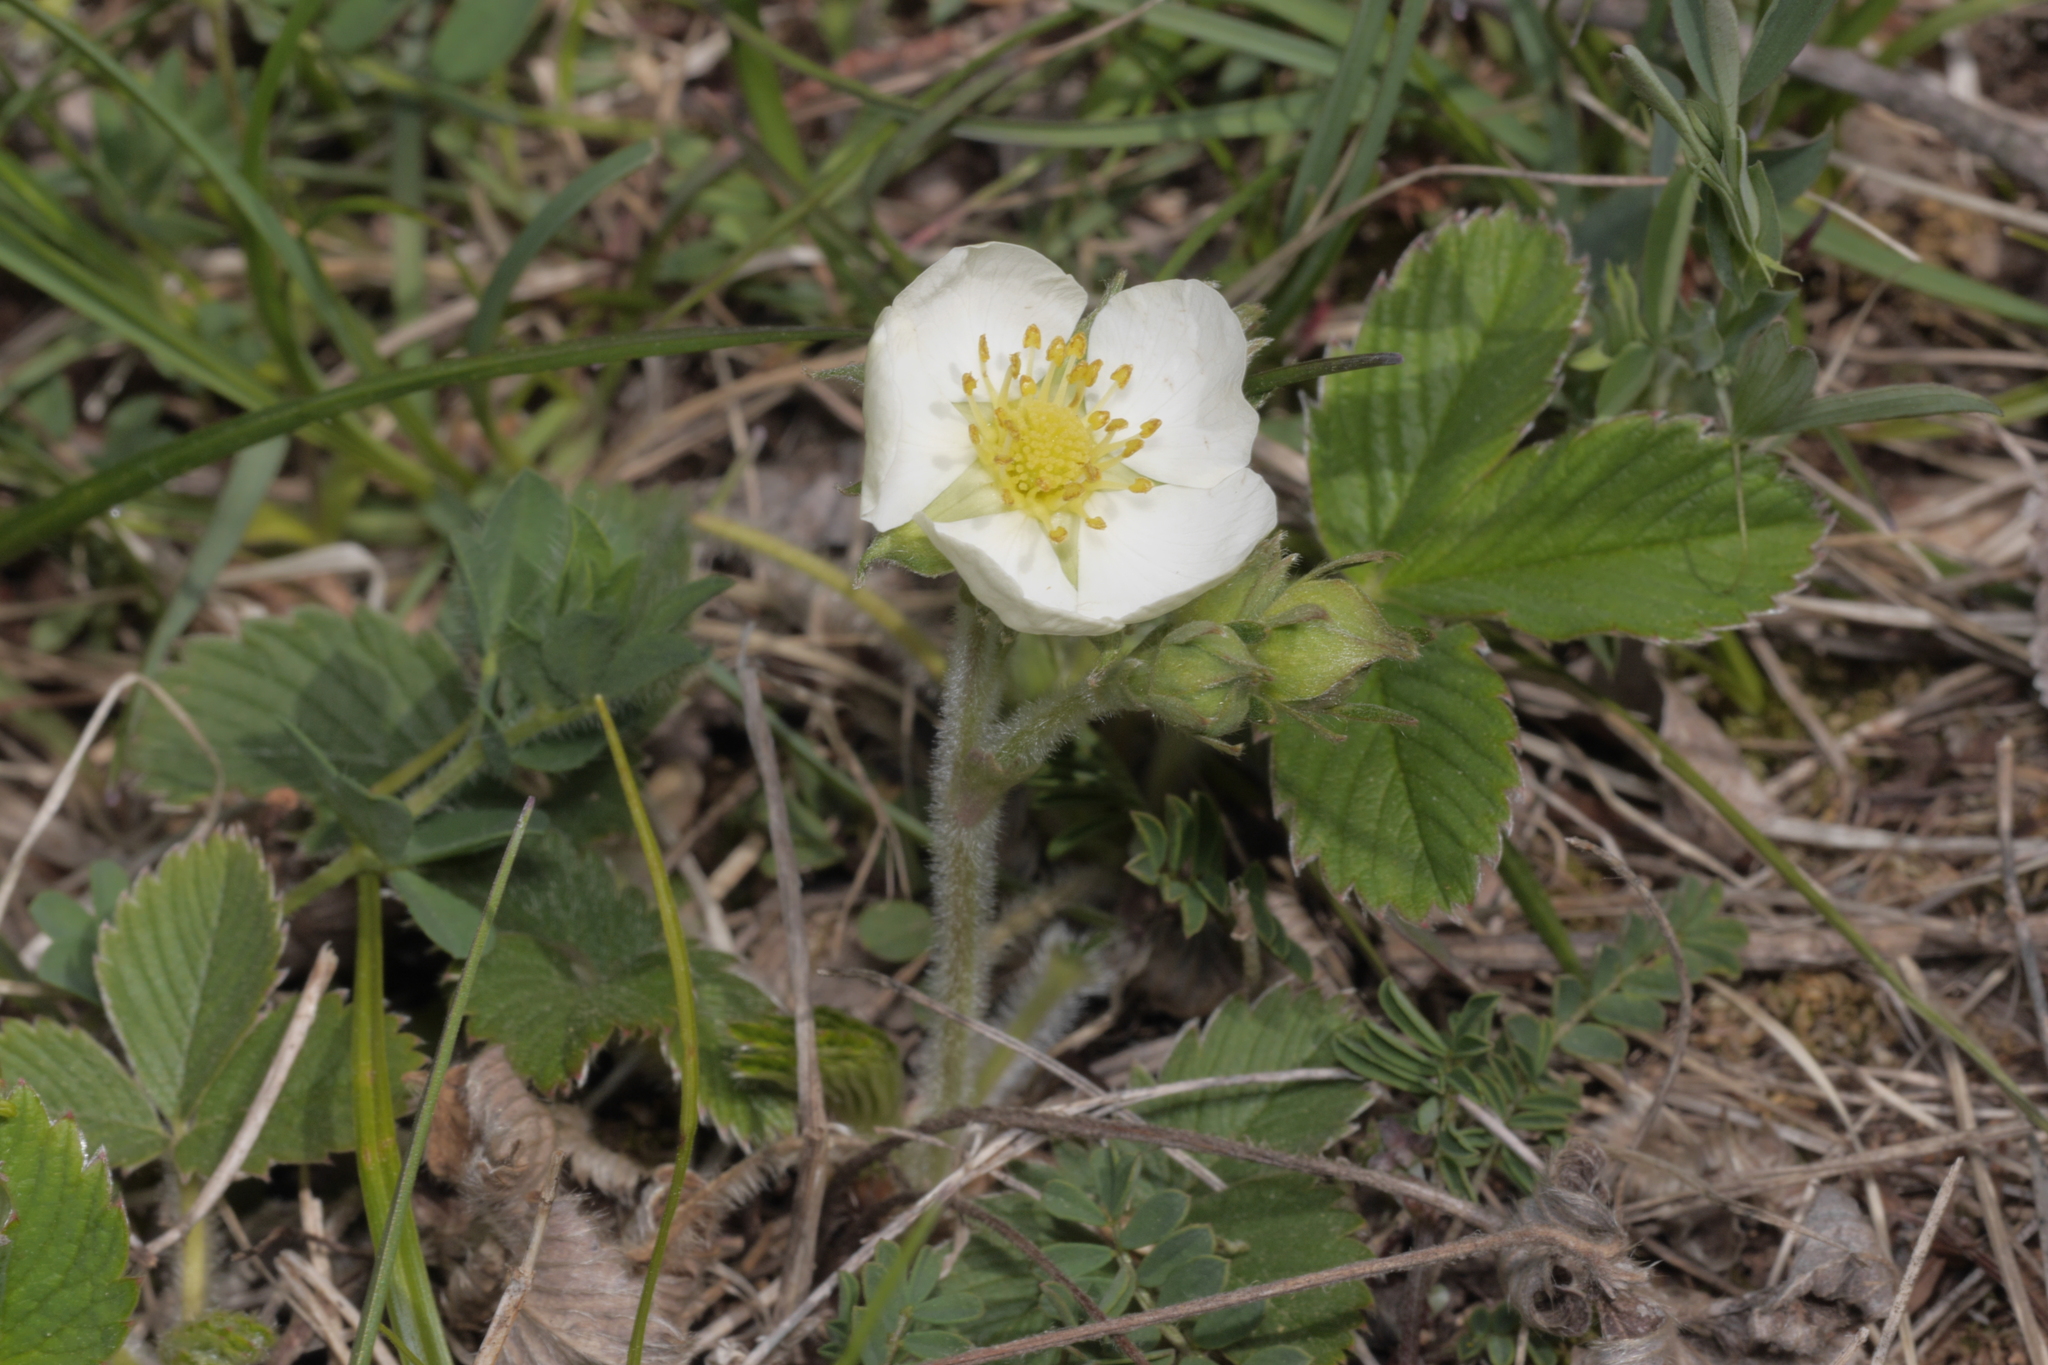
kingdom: Plantae
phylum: Tracheophyta
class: Magnoliopsida
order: Rosales
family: Rosaceae
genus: Fragaria
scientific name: Fragaria vesca
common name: Wild strawberry
